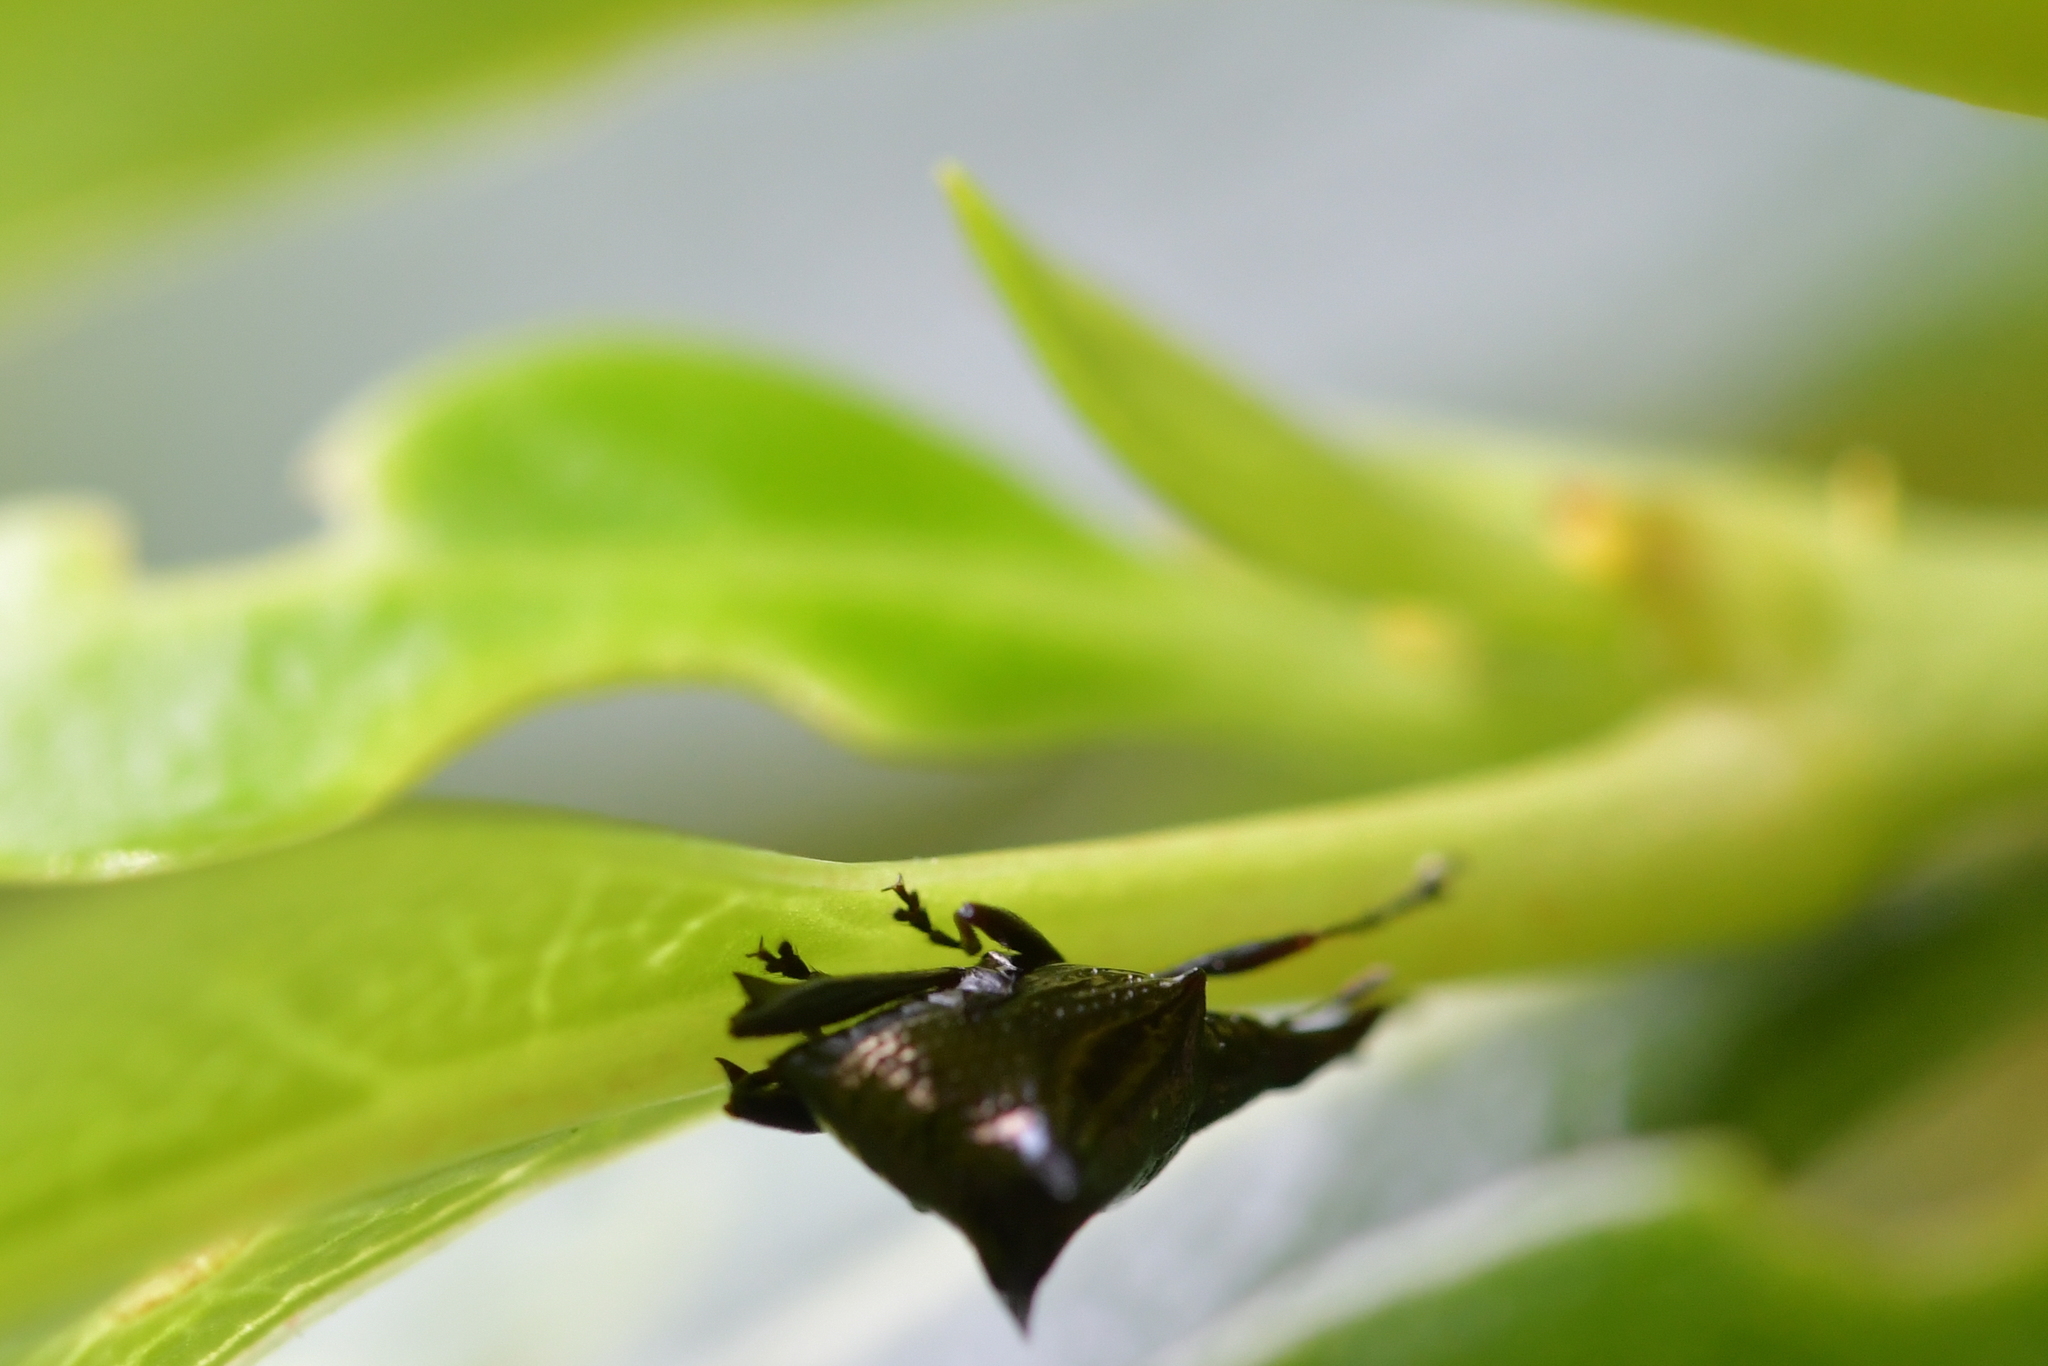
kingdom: Animalia
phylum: Arthropoda
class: Insecta
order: Coleoptera
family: Curculionidae
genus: Scolopterus
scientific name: Scolopterus penicillatus
